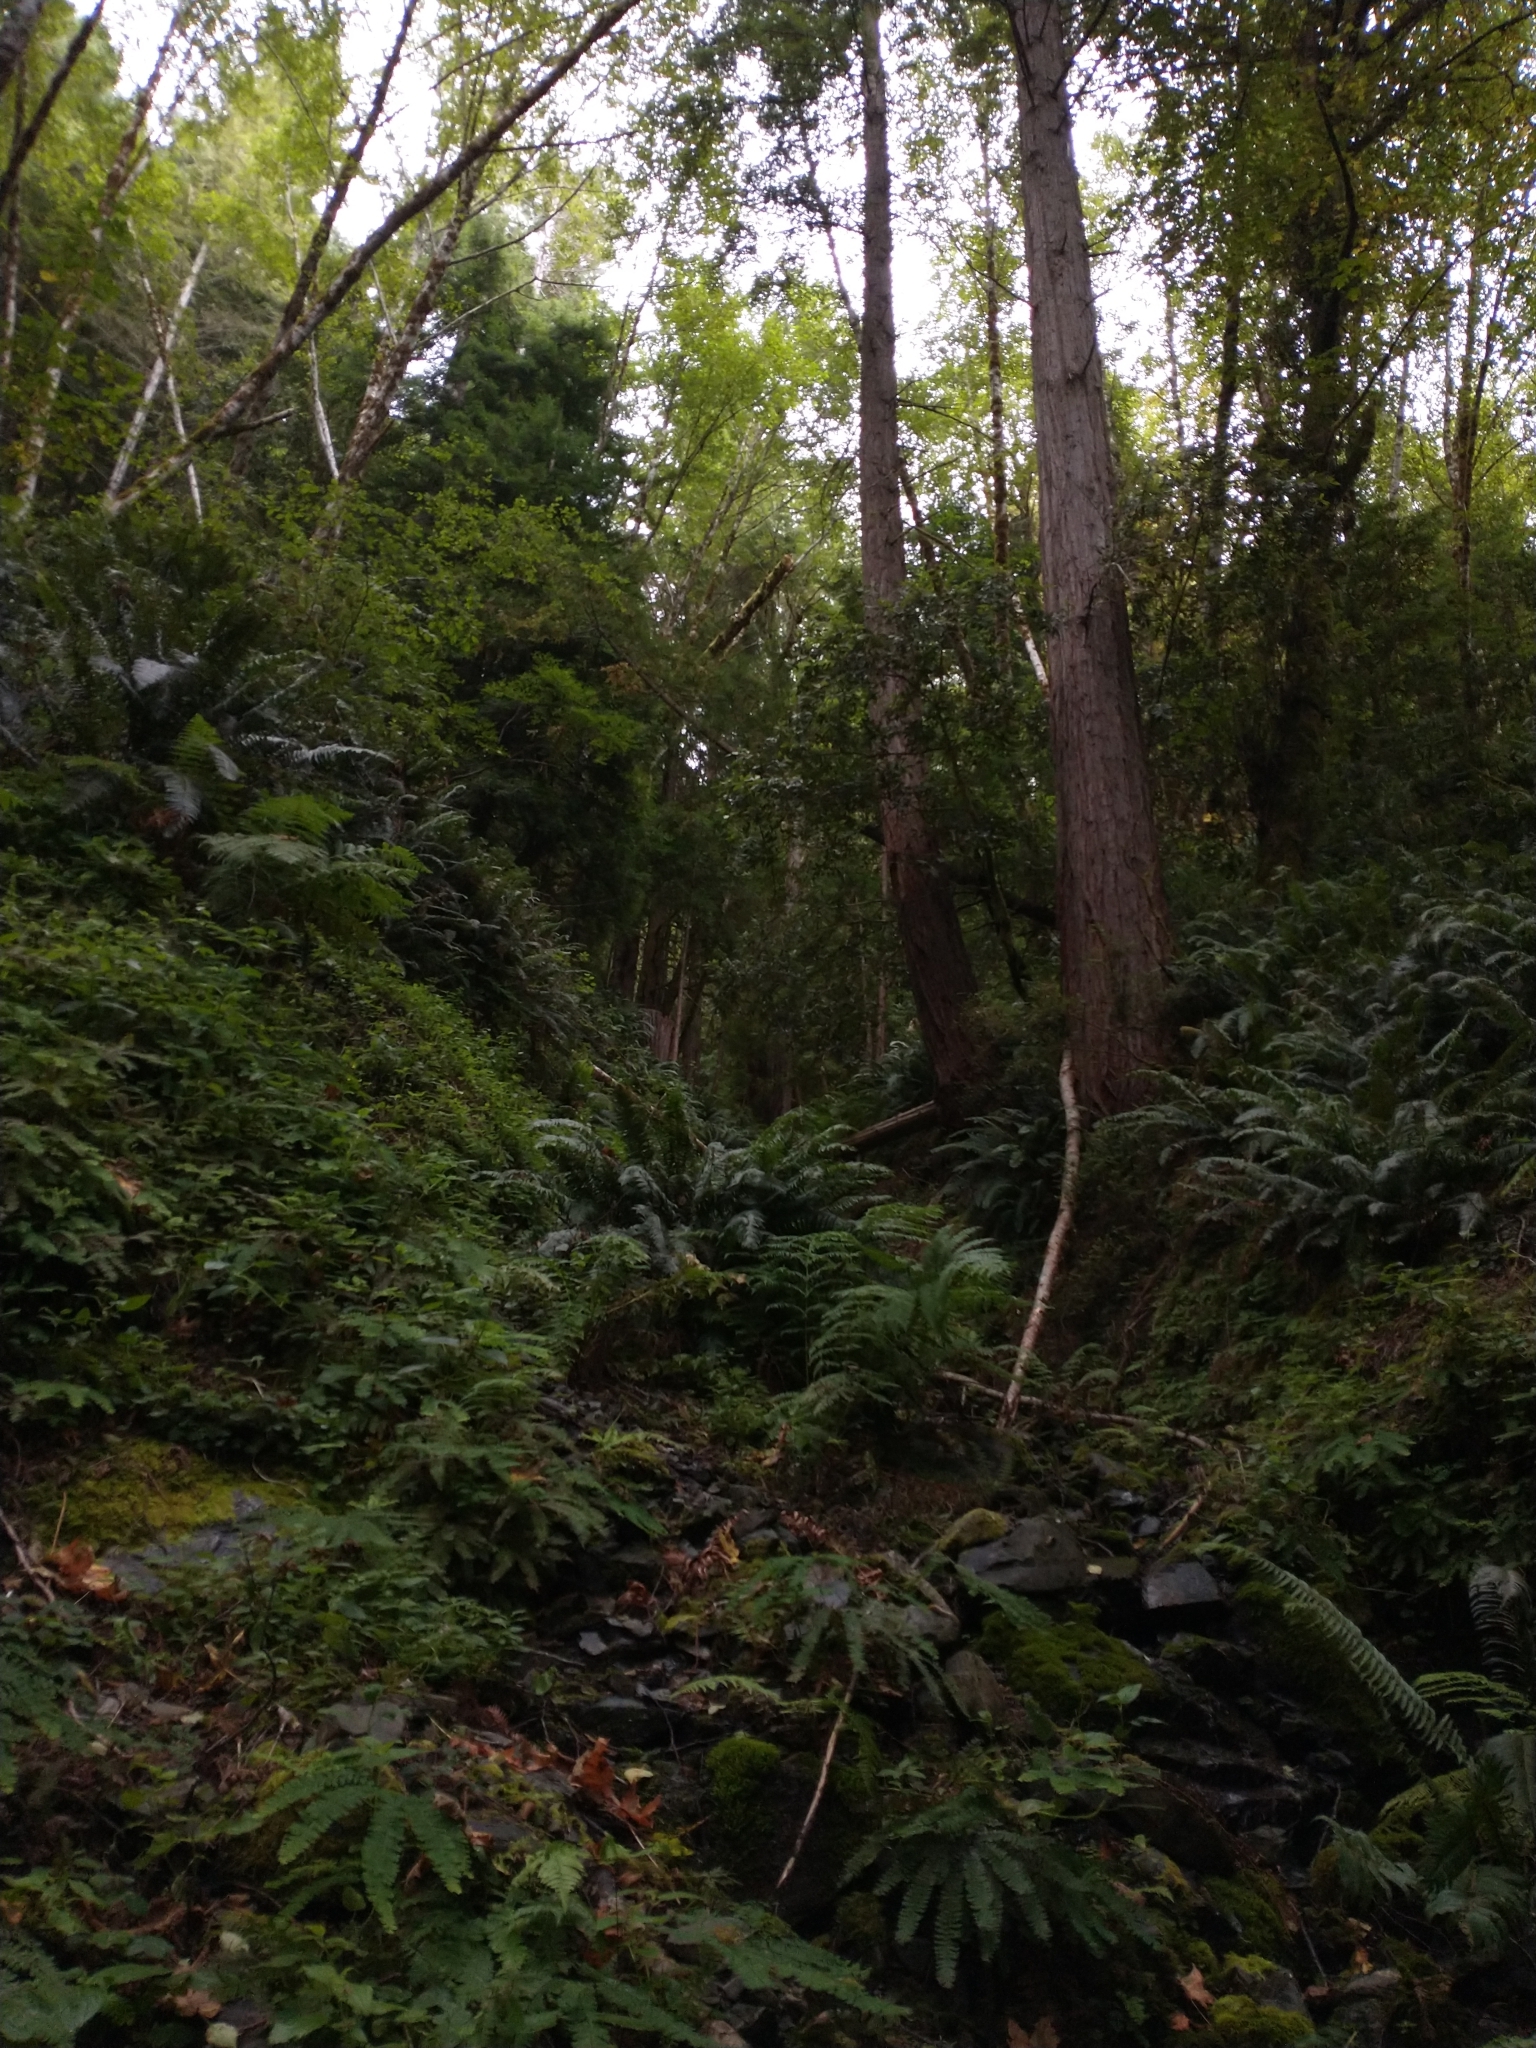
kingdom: Plantae
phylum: Tracheophyta
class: Polypodiopsida
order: Polypodiales
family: Pteridaceae
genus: Adiantum
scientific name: Adiantum aleuticum
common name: Aleutian maidenhair fern
